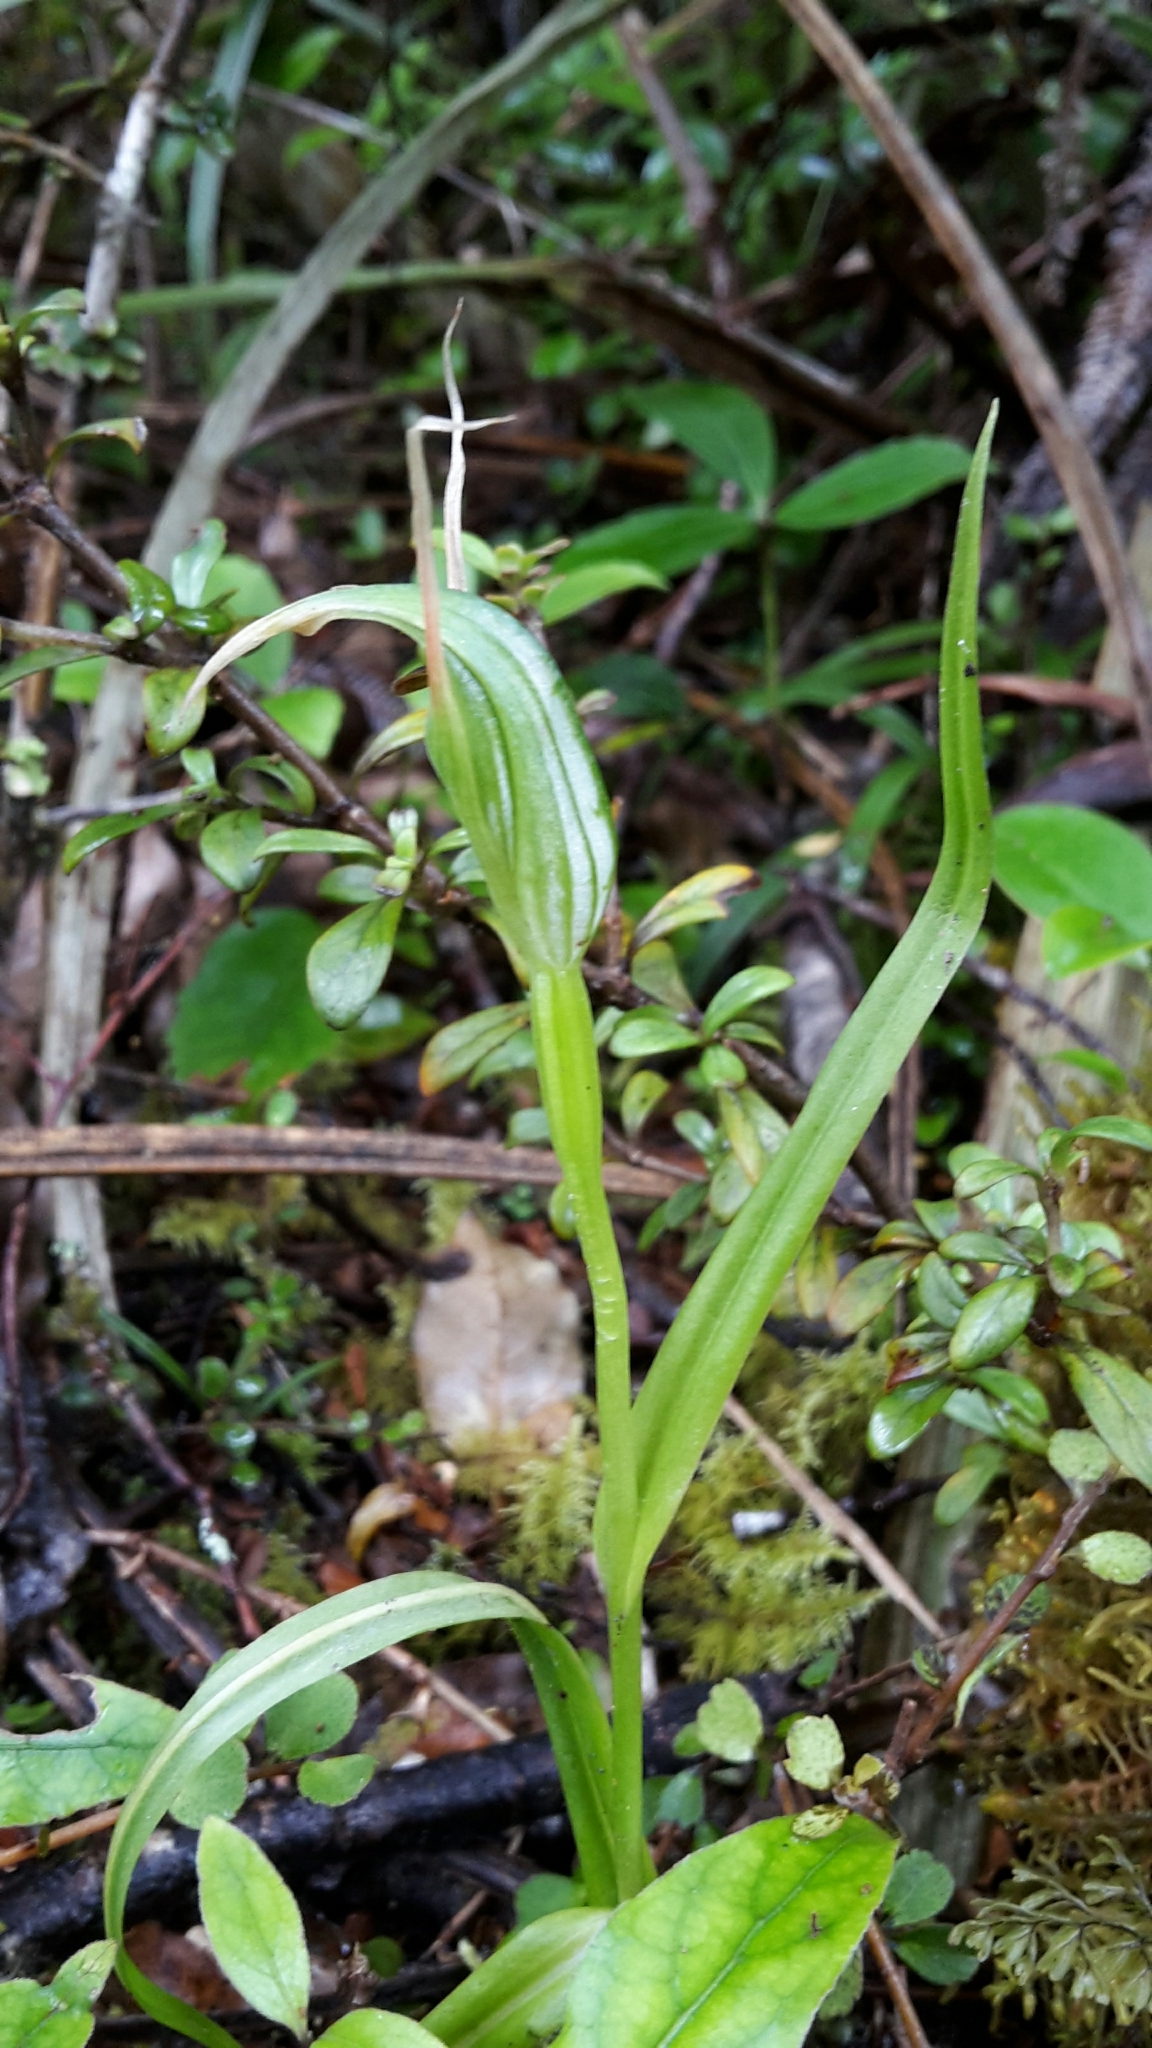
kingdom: Plantae
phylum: Tracheophyta
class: Liliopsida
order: Asparagales
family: Orchidaceae
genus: Pterostylis
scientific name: Pterostylis montana
